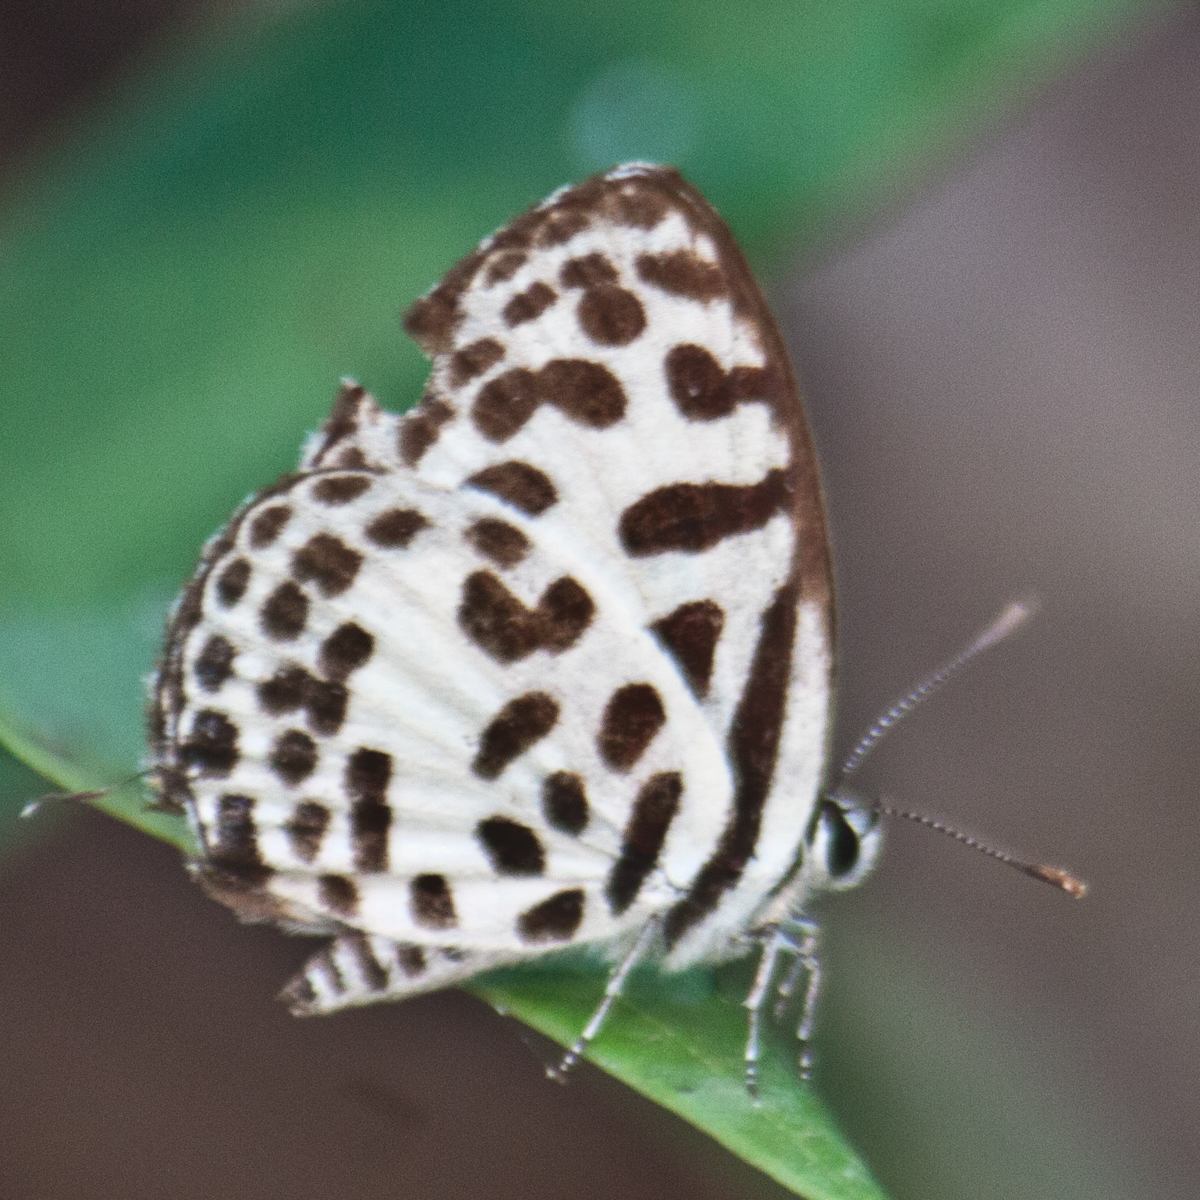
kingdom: Animalia
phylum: Arthropoda
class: Insecta
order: Lepidoptera
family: Lycaenidae
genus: Castalius
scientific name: Castalius rosimon
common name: Common pierrot
